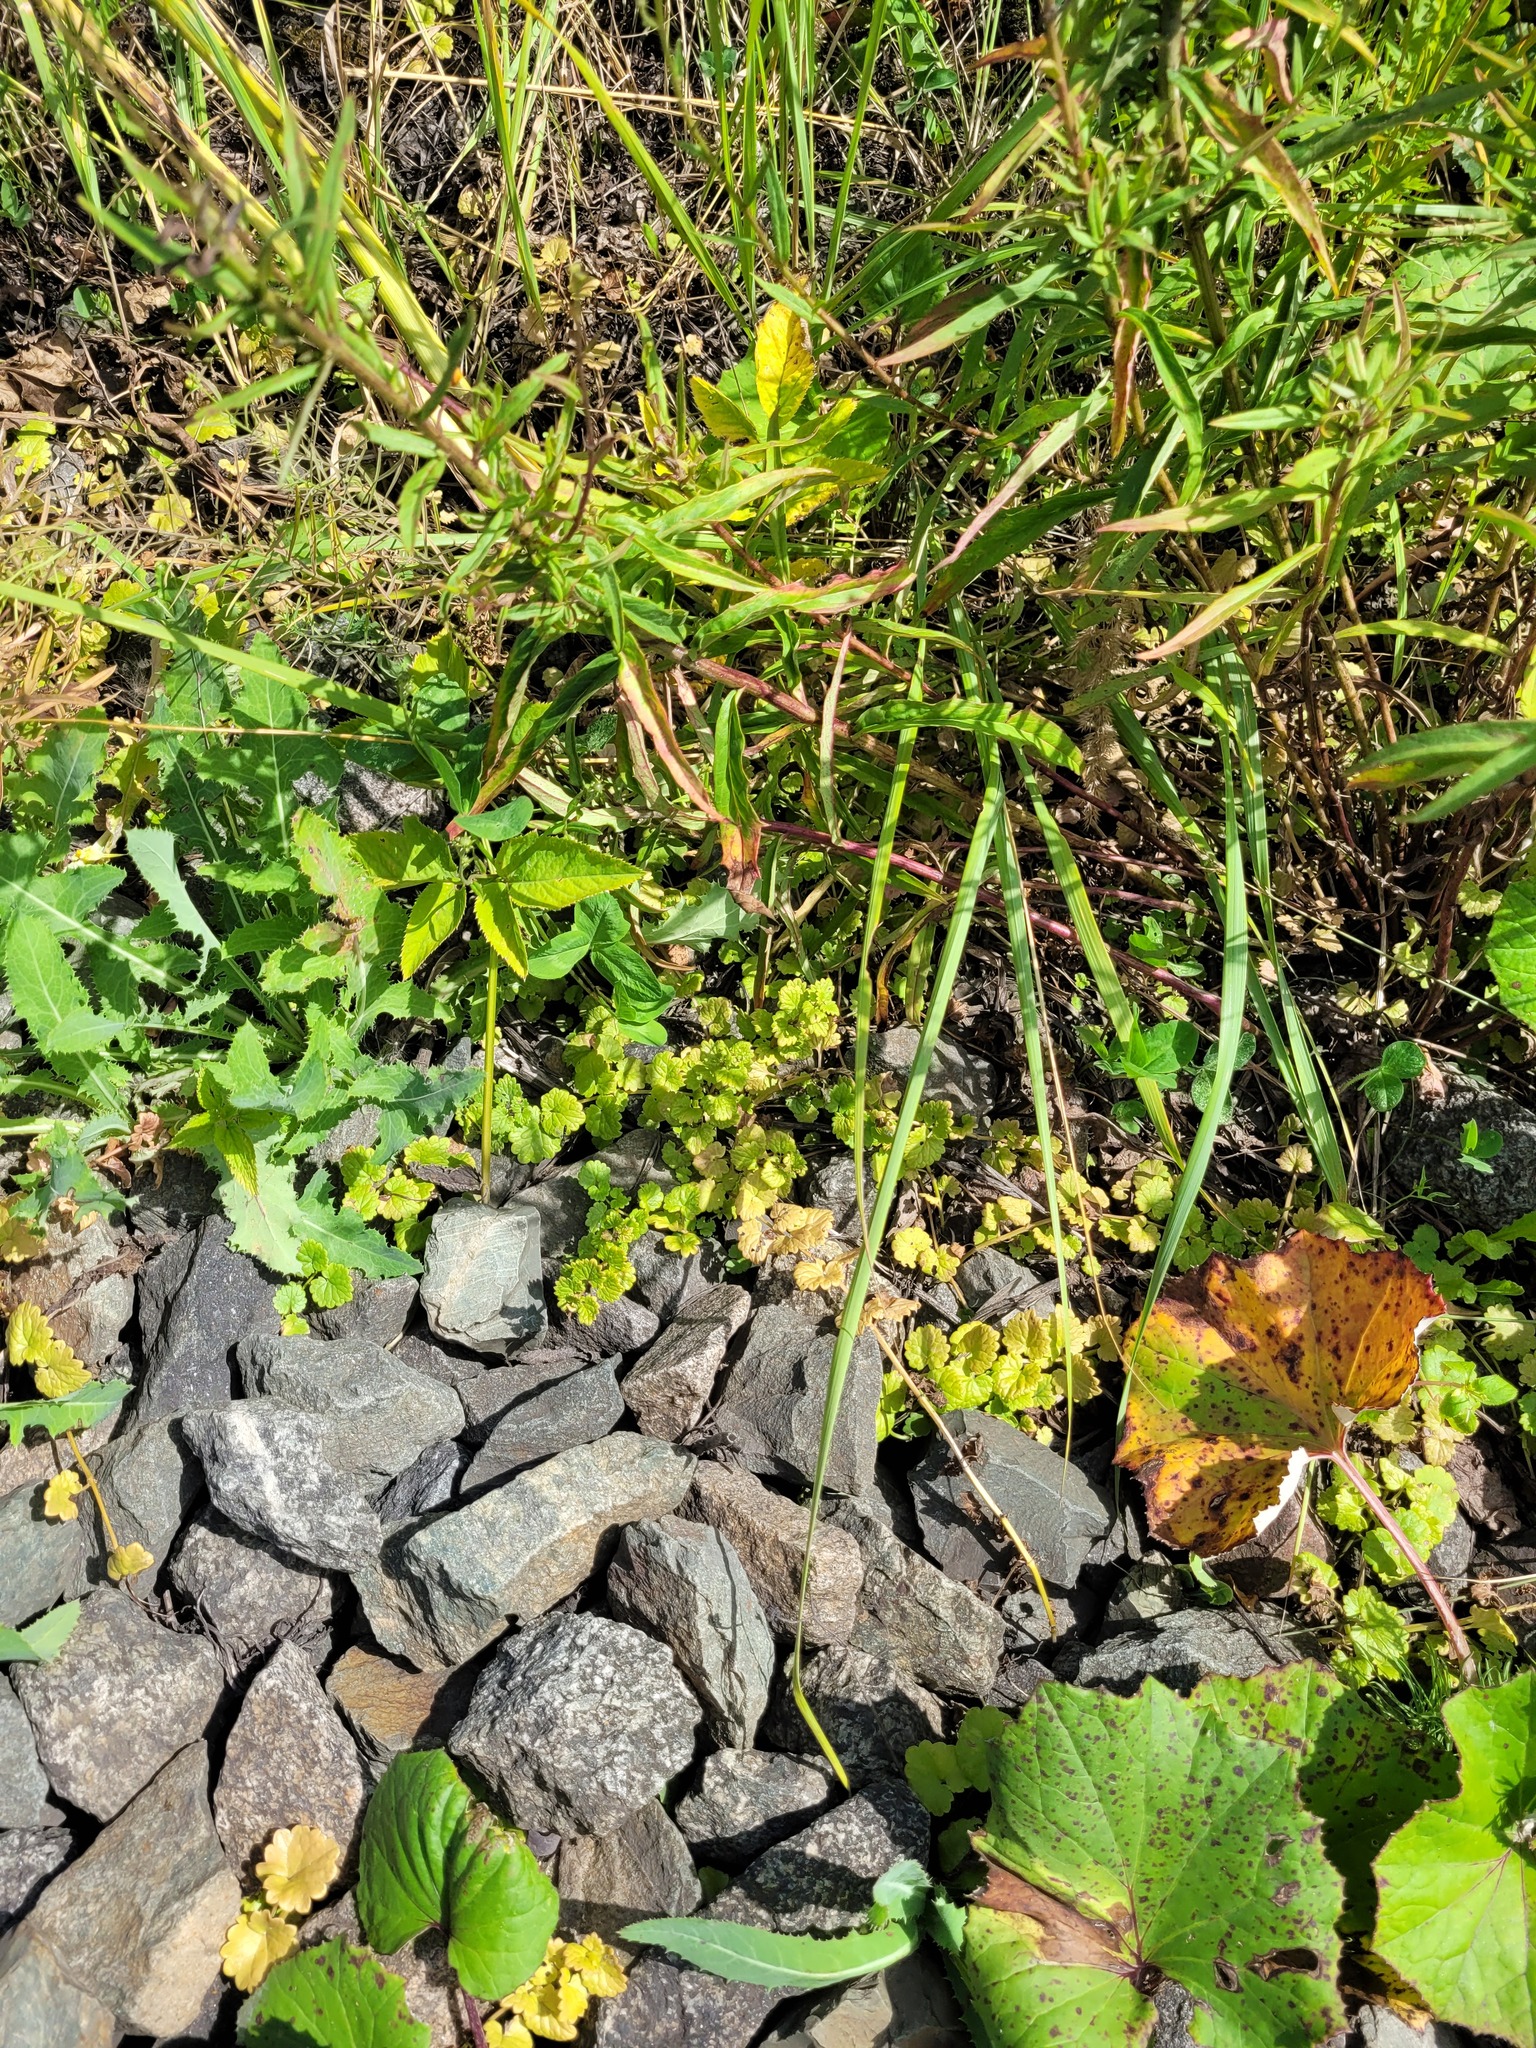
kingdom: Plantae
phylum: Tracheophyta
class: Magnoliopsida
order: Lamiales
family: Lamiaceae
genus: Glechoma
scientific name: Glechoma hederacea
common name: Ground ivy
